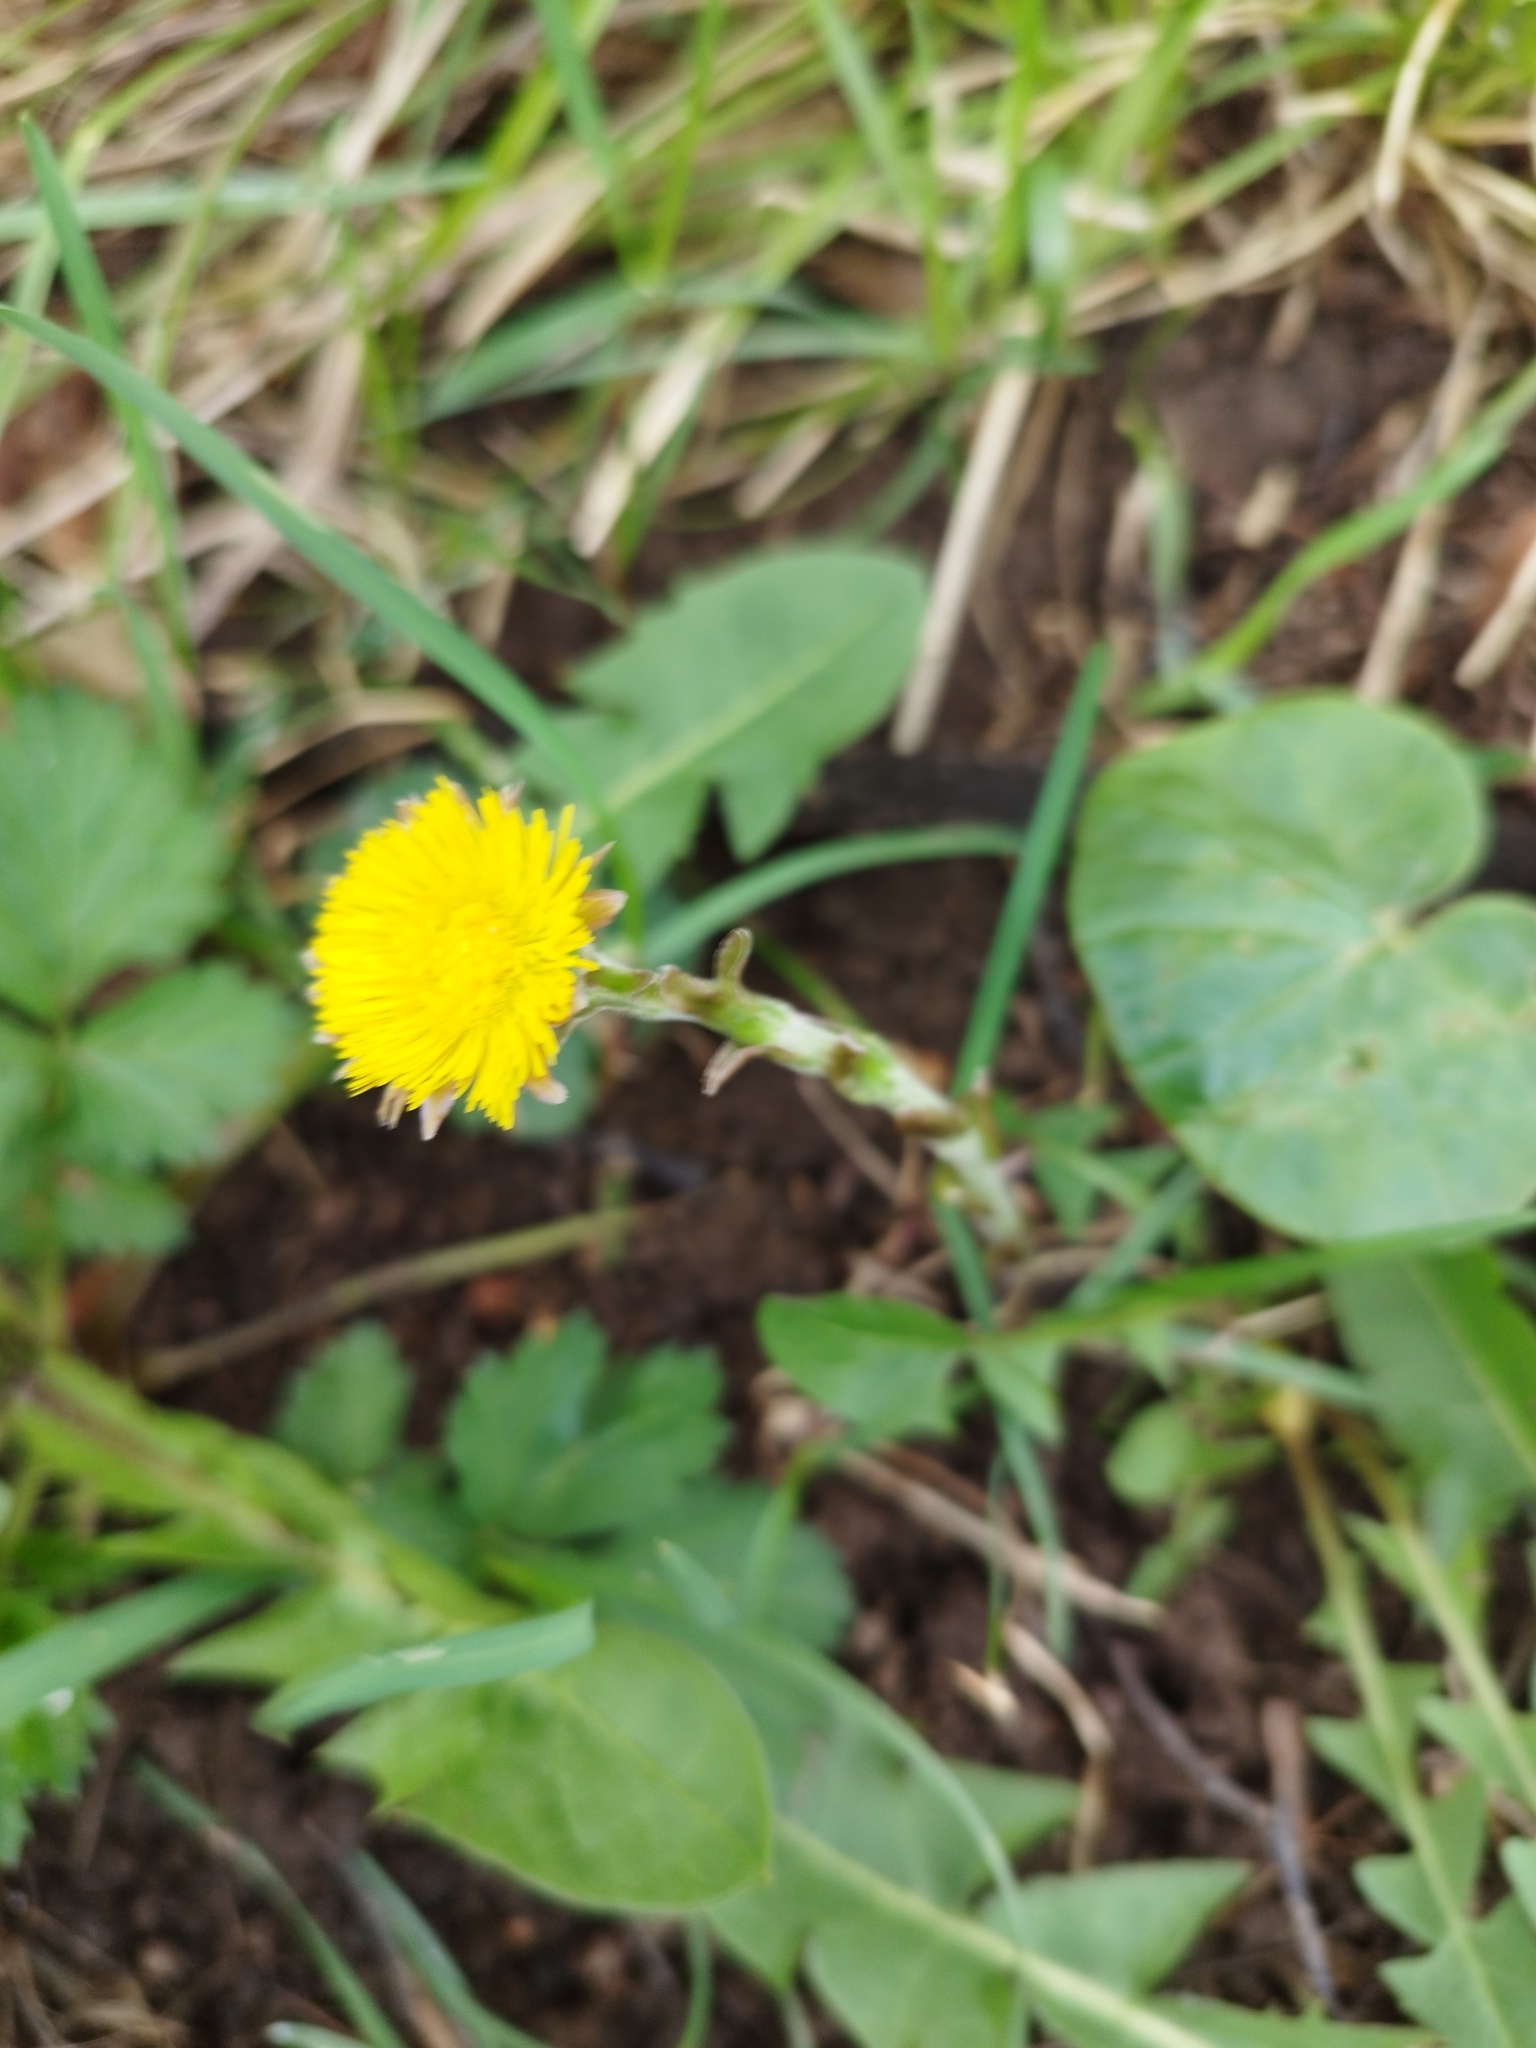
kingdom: Plantae
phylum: Tracheophyta
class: Magnoliopsida
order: Asterales
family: Asteraceae
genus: Tussilago
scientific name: Tussilago farfara
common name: Coltsfoot
